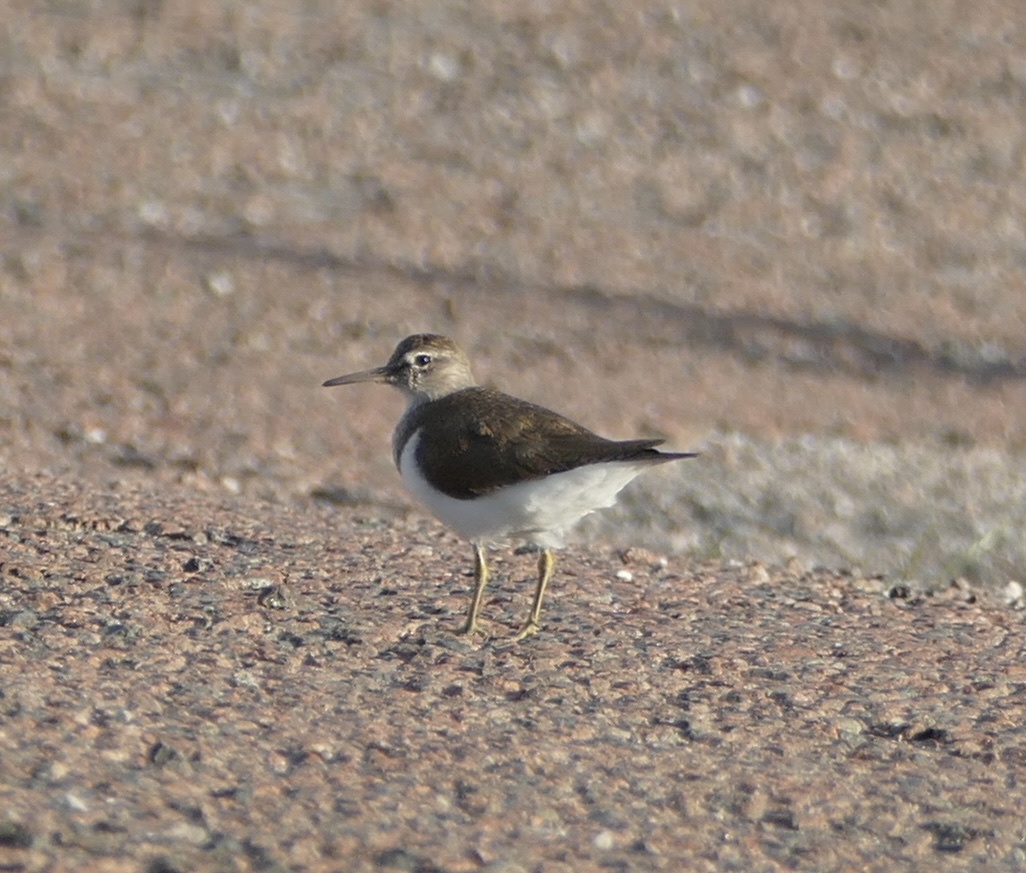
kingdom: Animalia
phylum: Chordata
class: Aves
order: Charadriiformes
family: Scolopacidae
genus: Actitis
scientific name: Actitis hypoleucos
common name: Common sandpiper
